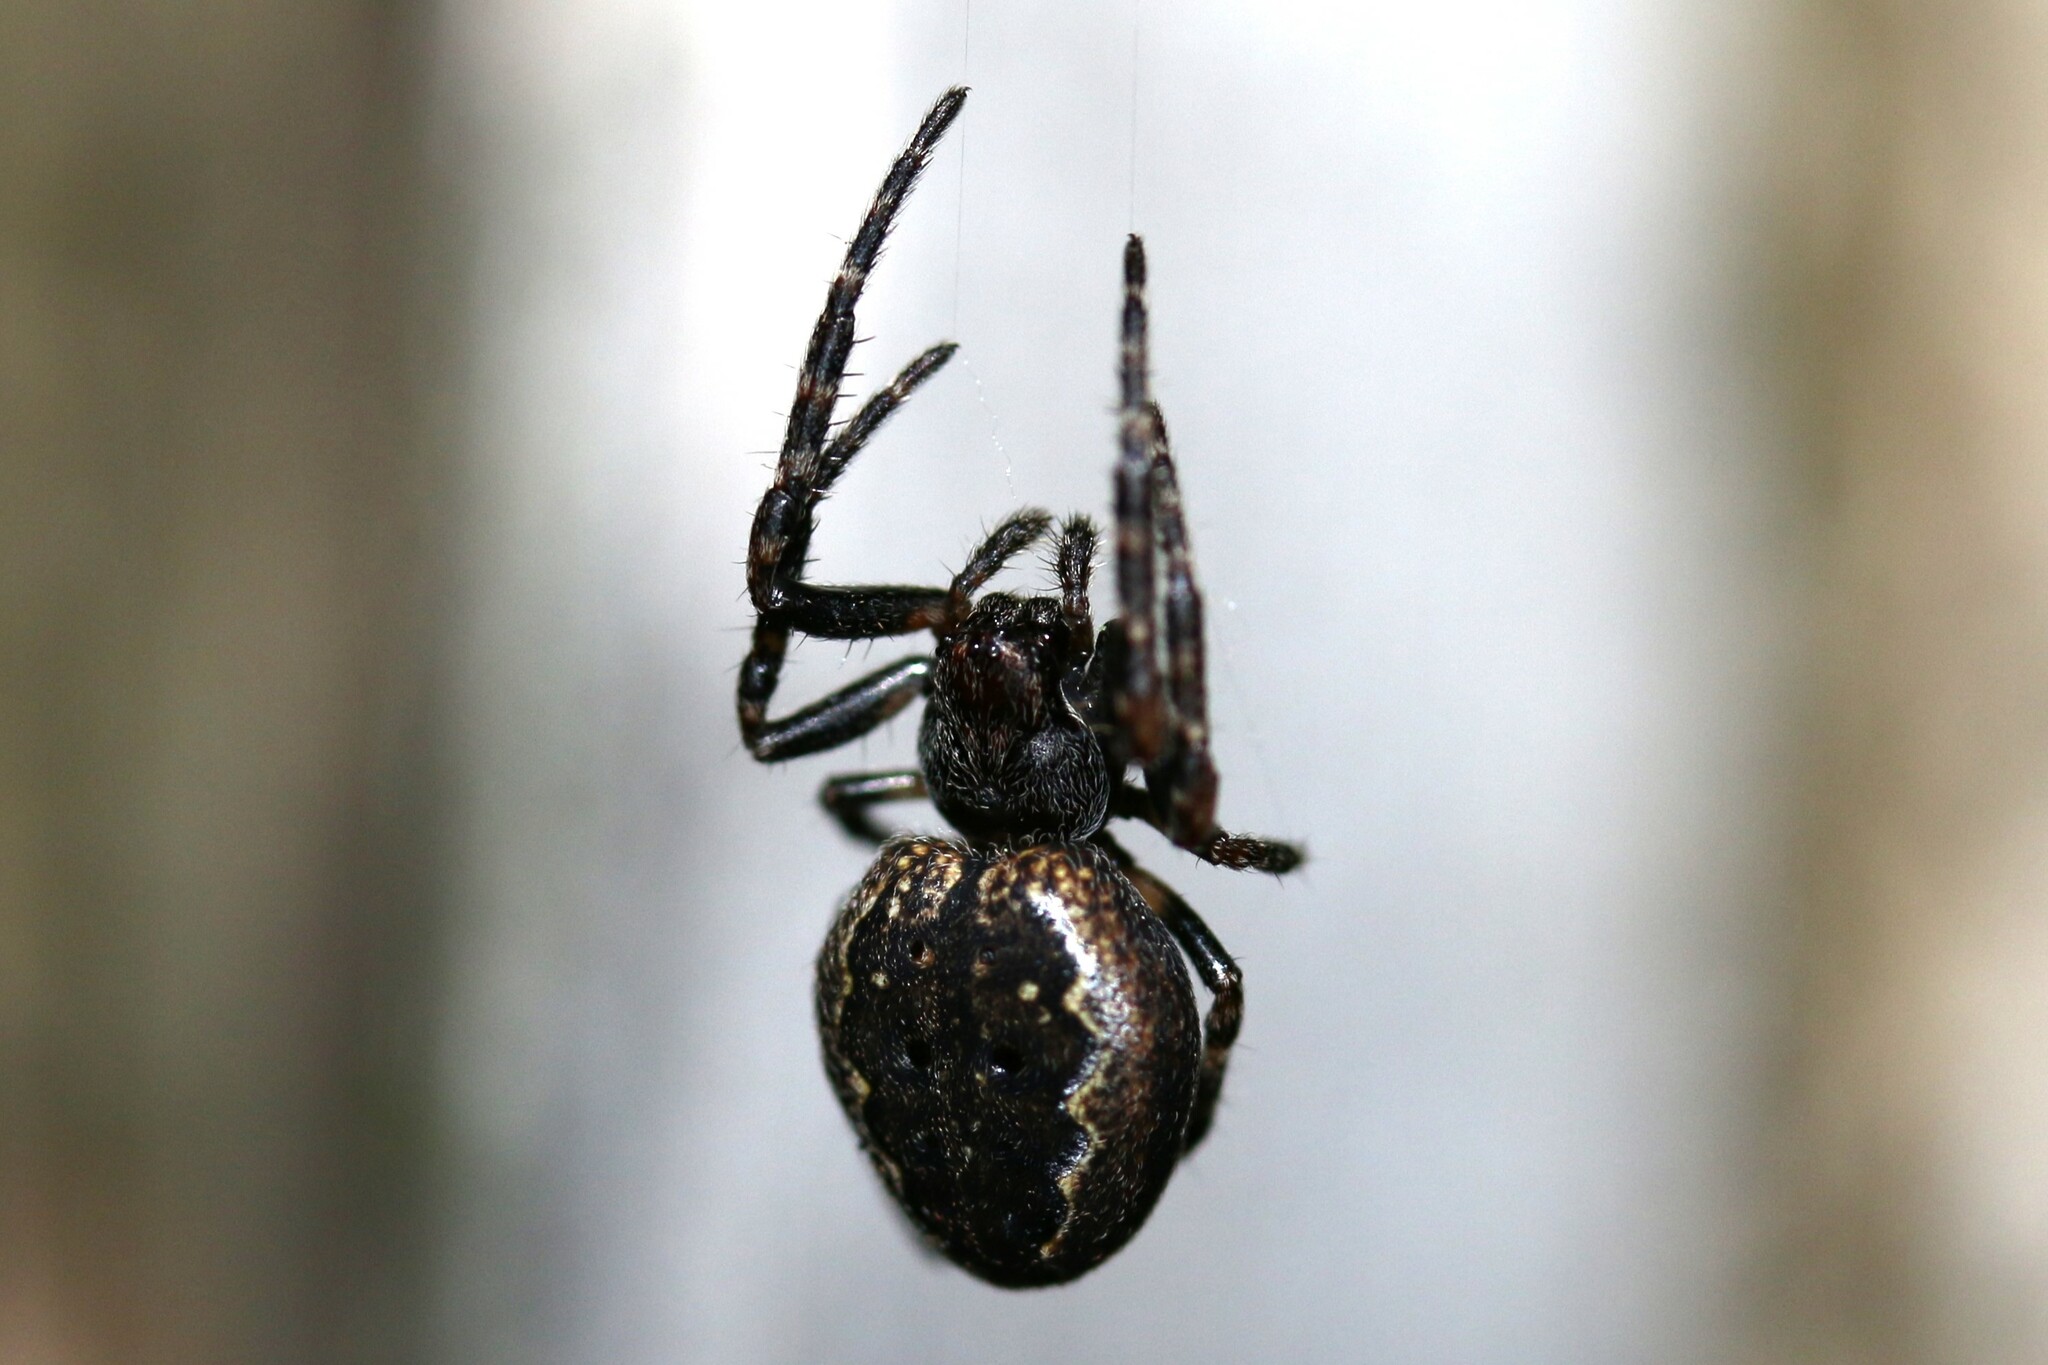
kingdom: Animalia
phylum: Arthropoda
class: Arachnida
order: Araneae
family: Araneidae
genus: Nuctenea
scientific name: Nuctenea umbratica
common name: Toad spider
